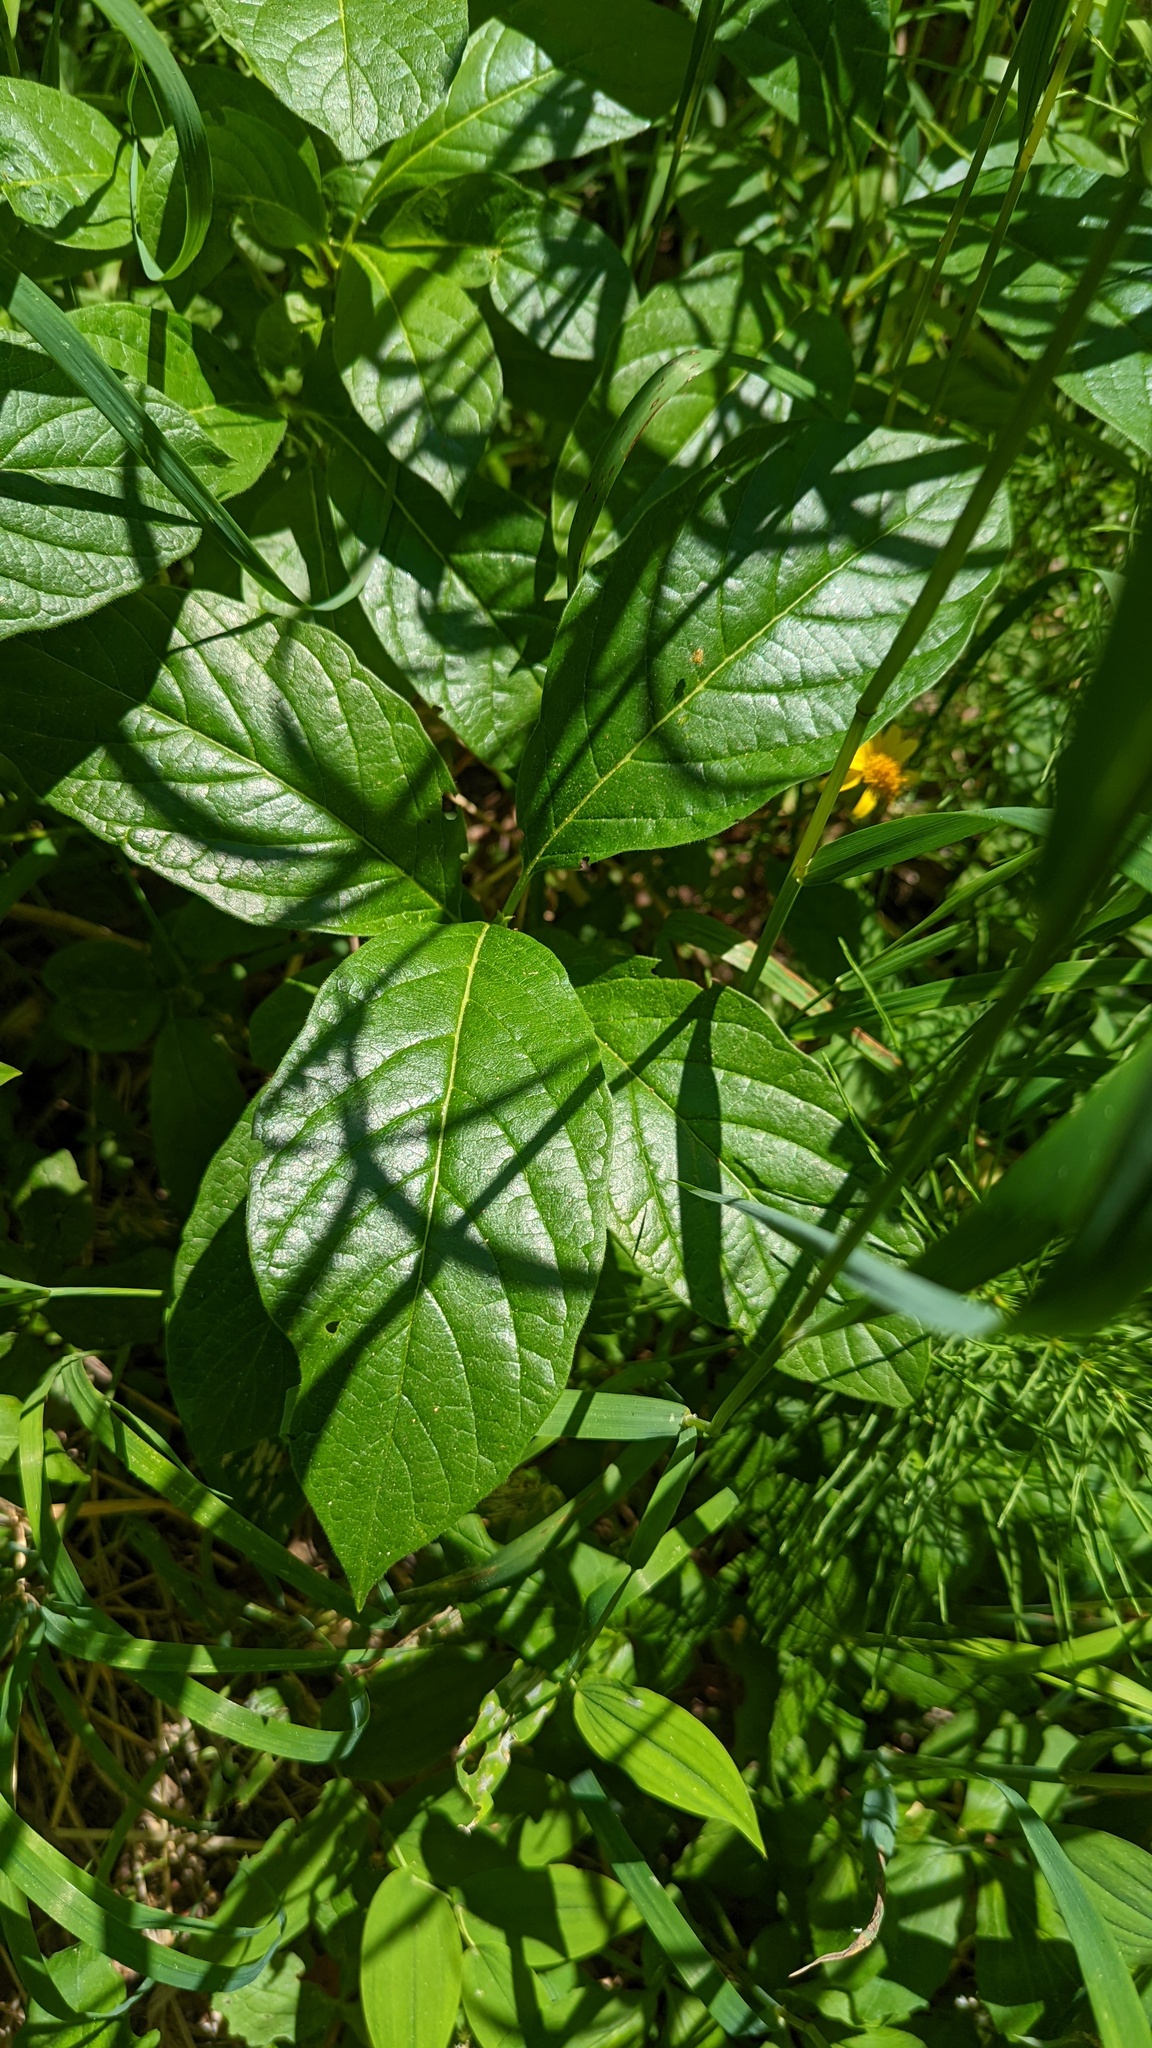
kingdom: Plantae
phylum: Tracheophyta
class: Magnoliopsida
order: Dipsacales
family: Caprifoliaceae
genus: Lonicera
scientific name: Lonicera involucrata
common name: Californian honeysuckle
